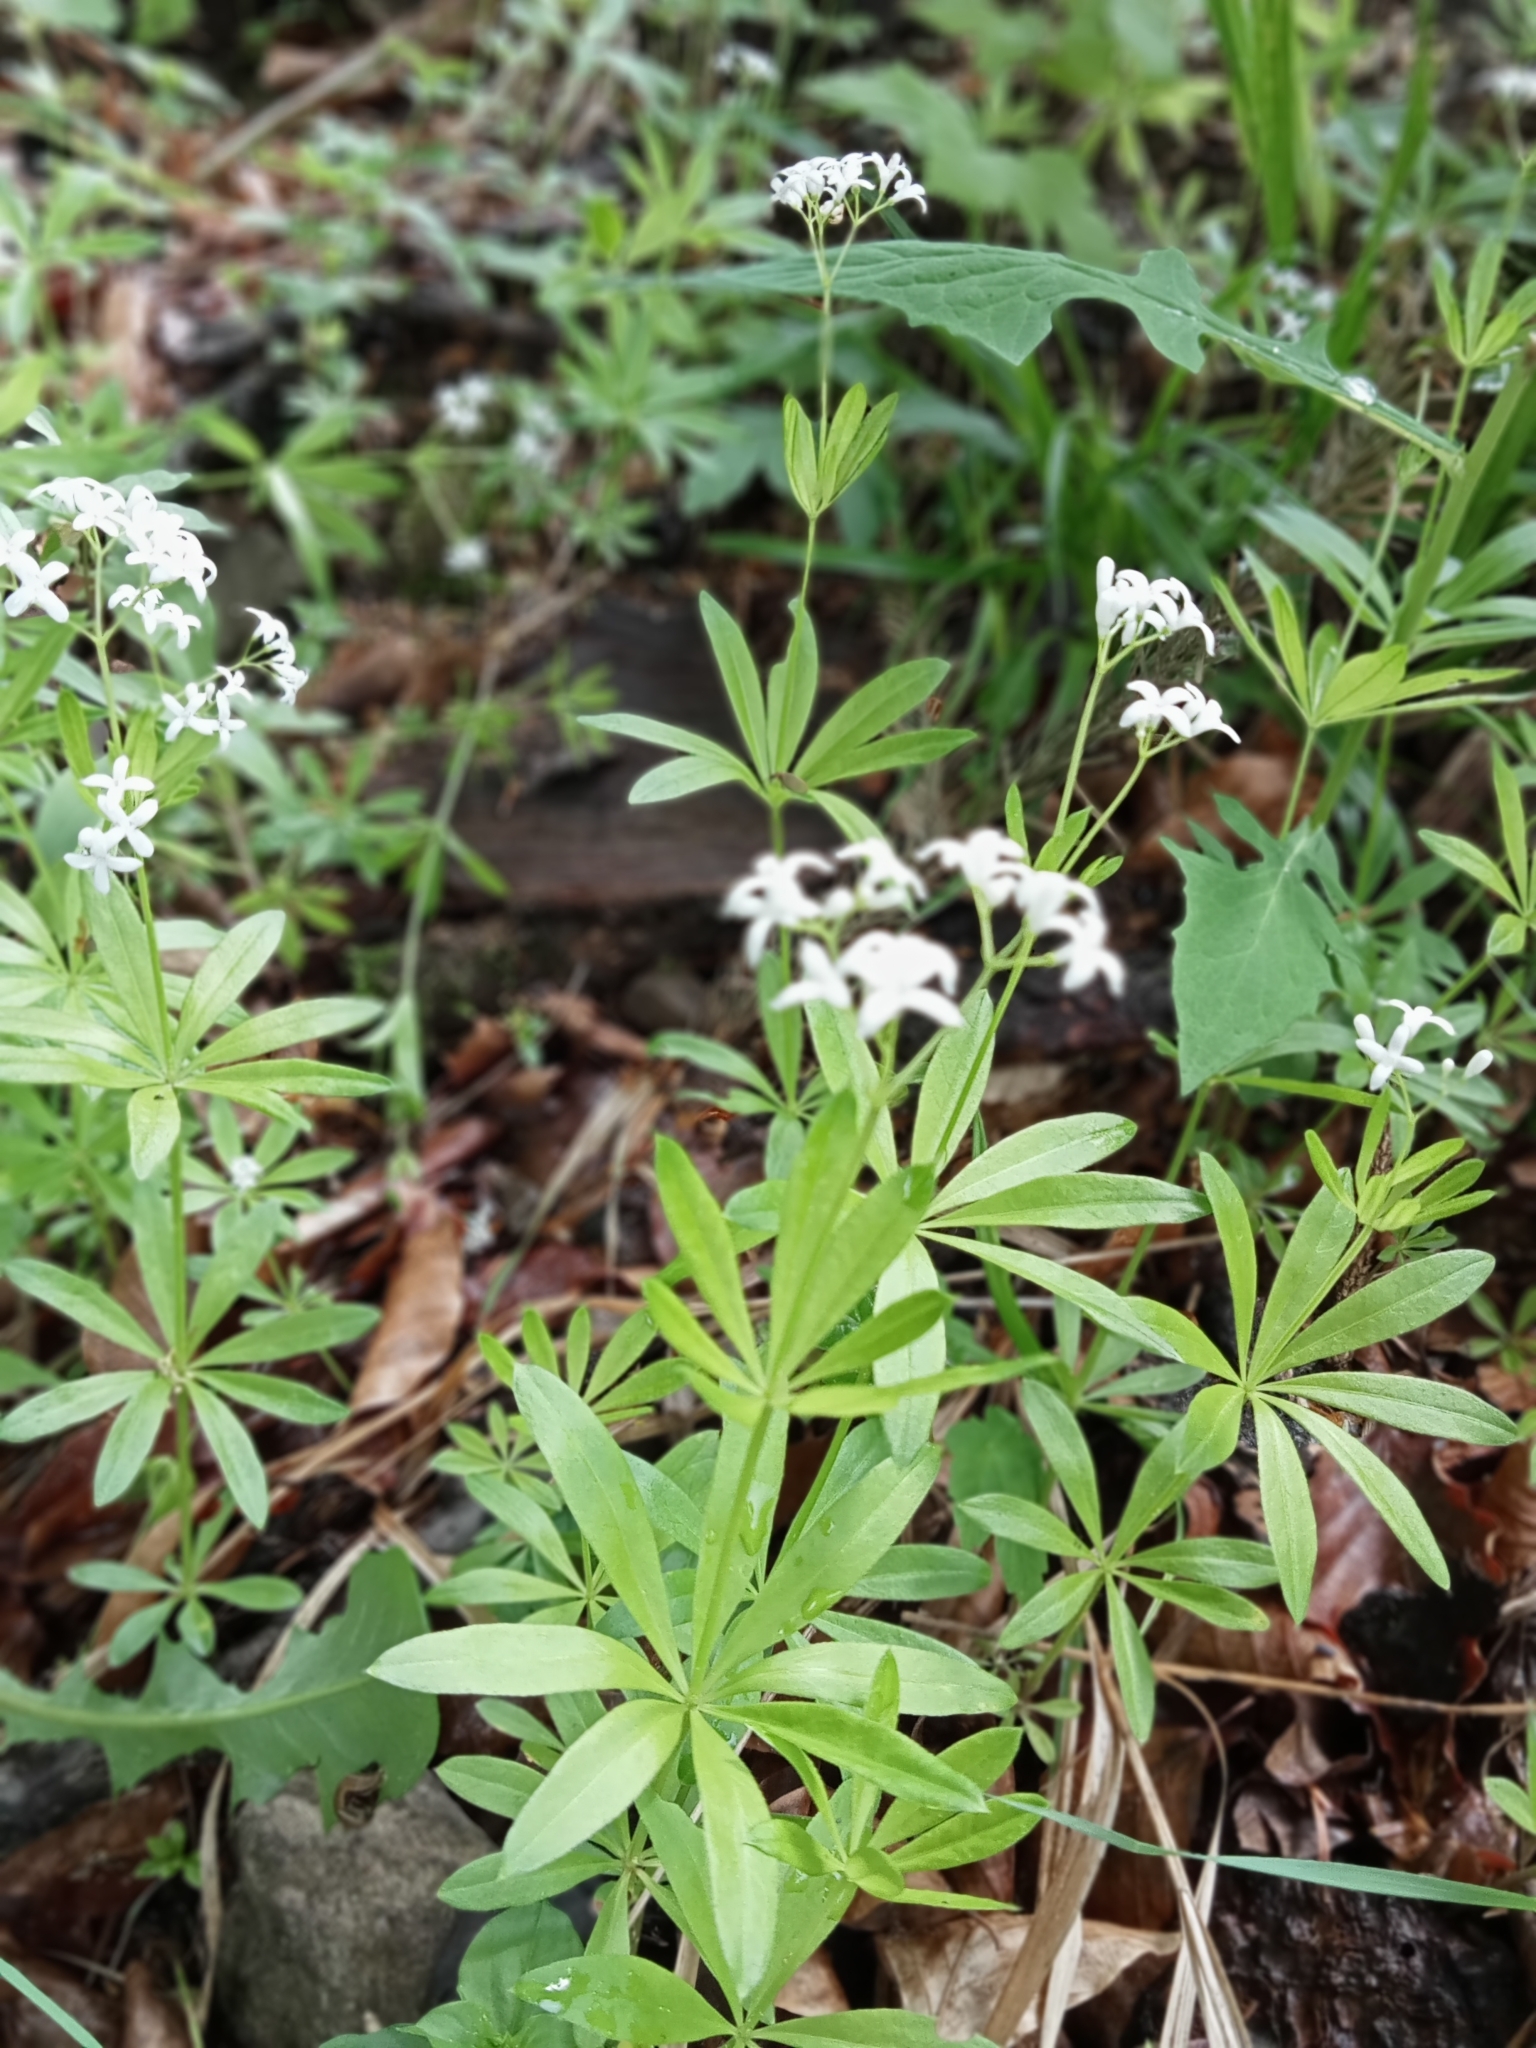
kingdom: Plantae
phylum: Tracheophyta
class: Magnoliopsida
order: Gentianales
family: Rubiaceae
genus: Galium
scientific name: Galium odoratum
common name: Sweet woodruff
